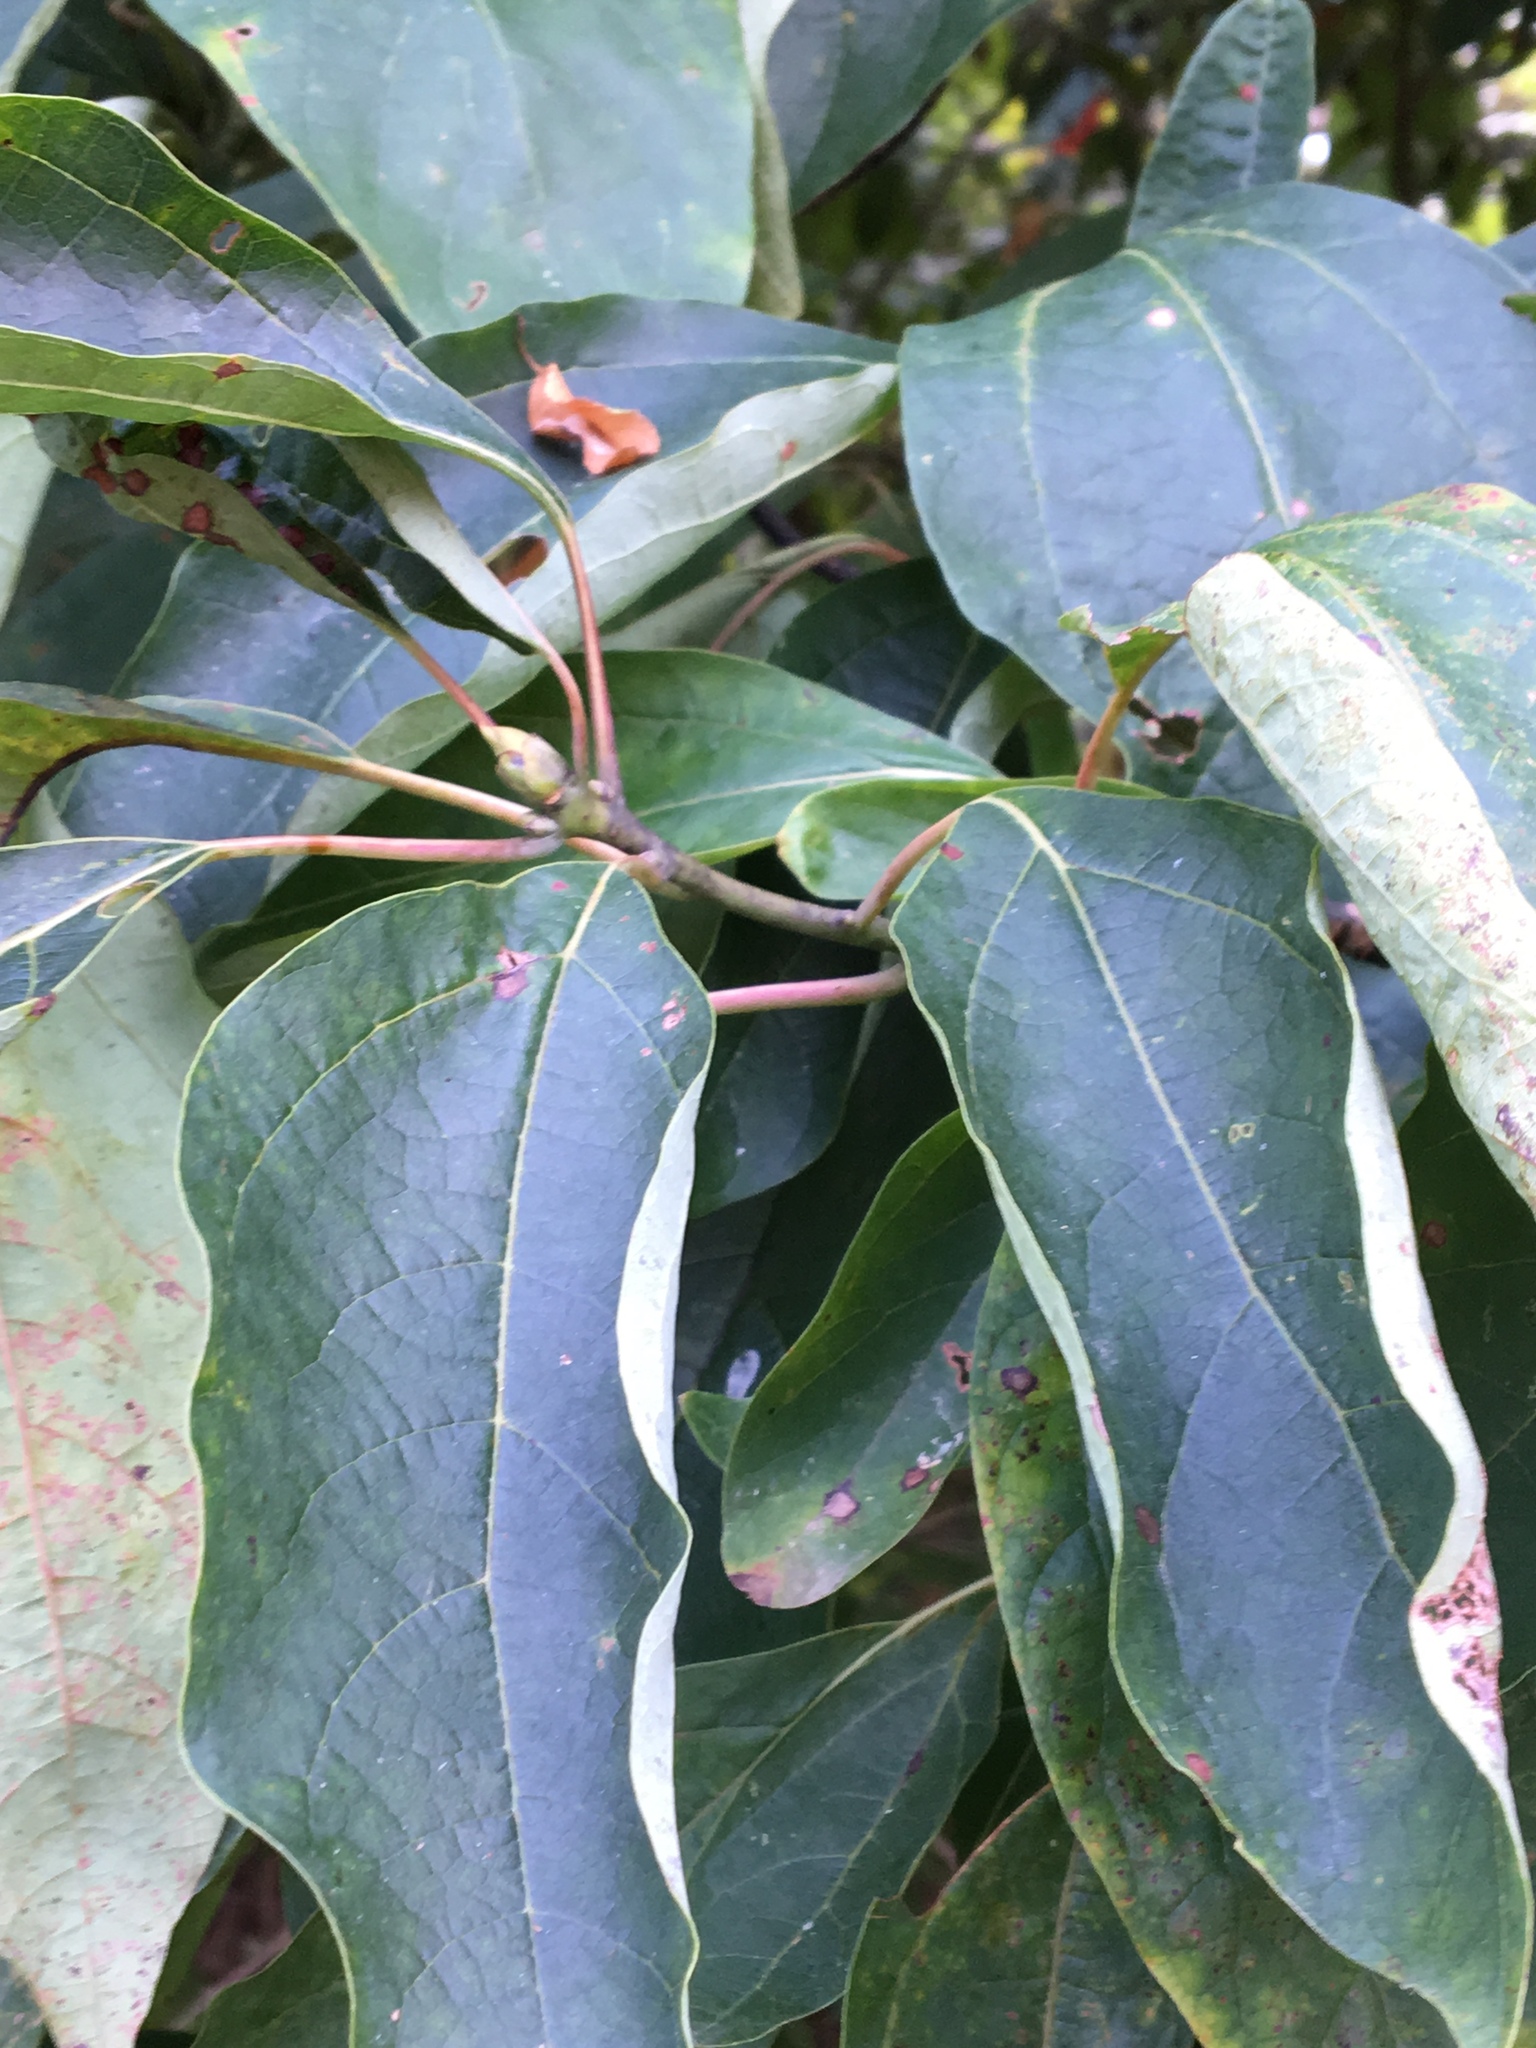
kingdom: Plantae
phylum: Tracheophyta
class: Magnoliopsida
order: Laurales
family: Lauraceae
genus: Sassafras
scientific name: Sassafras albidum
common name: Sassafras
